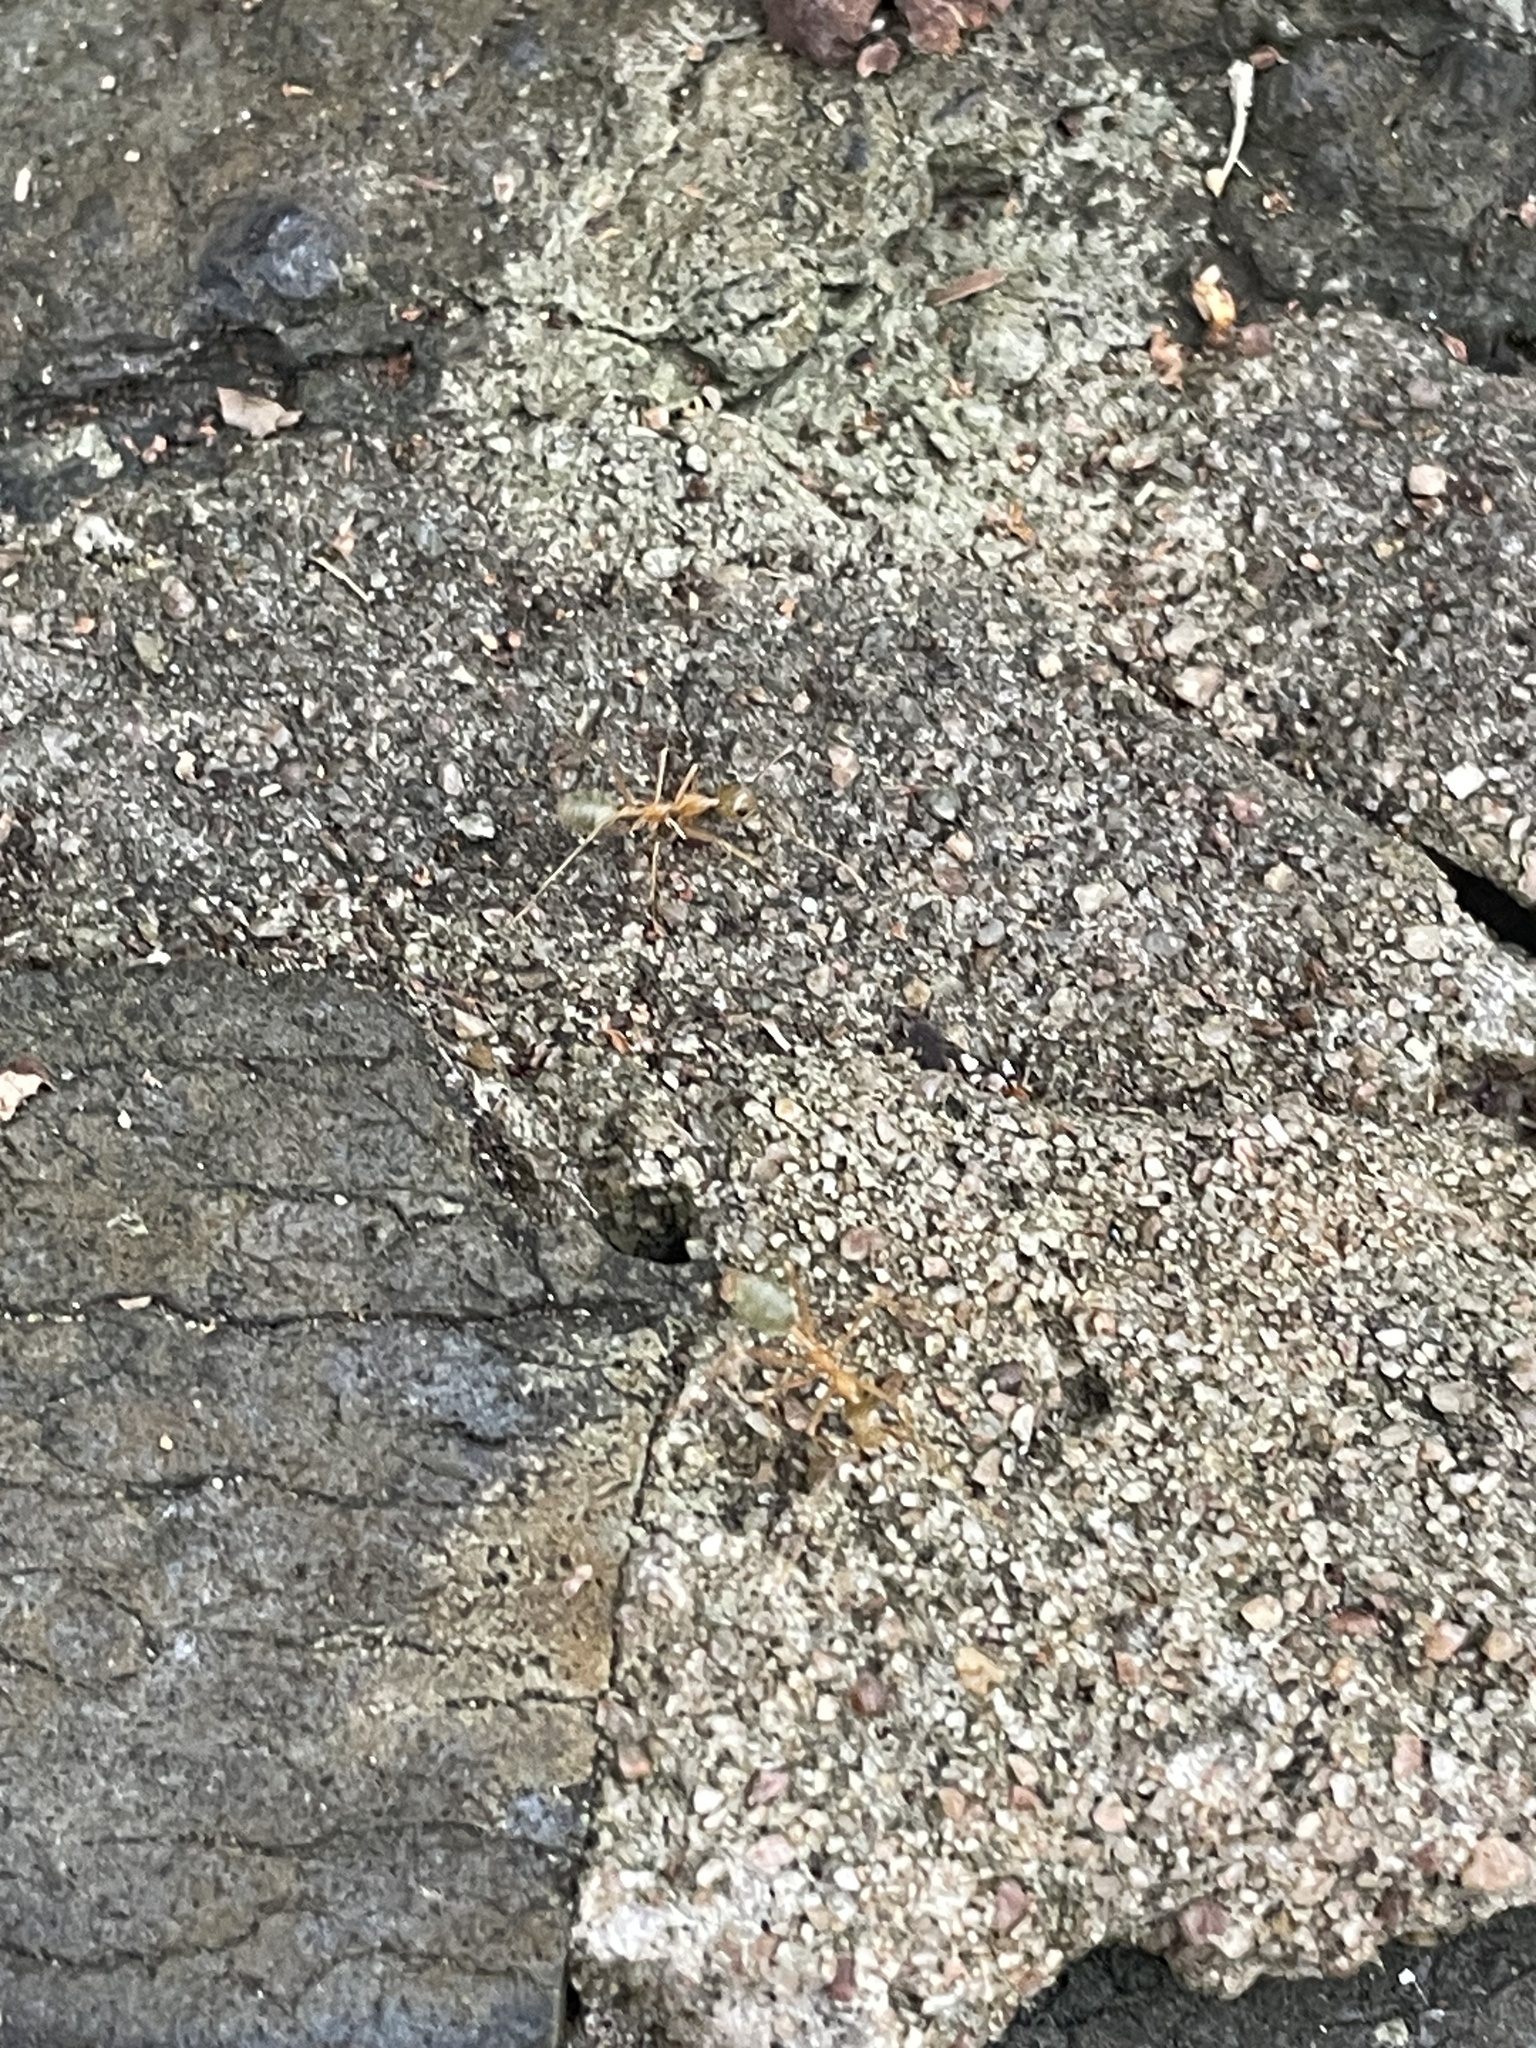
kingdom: Animalia
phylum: Arthropoda
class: Insecta
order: Hymenoptera
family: Formicidae
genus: Oecophylla
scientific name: Oecophylla smaragdina
